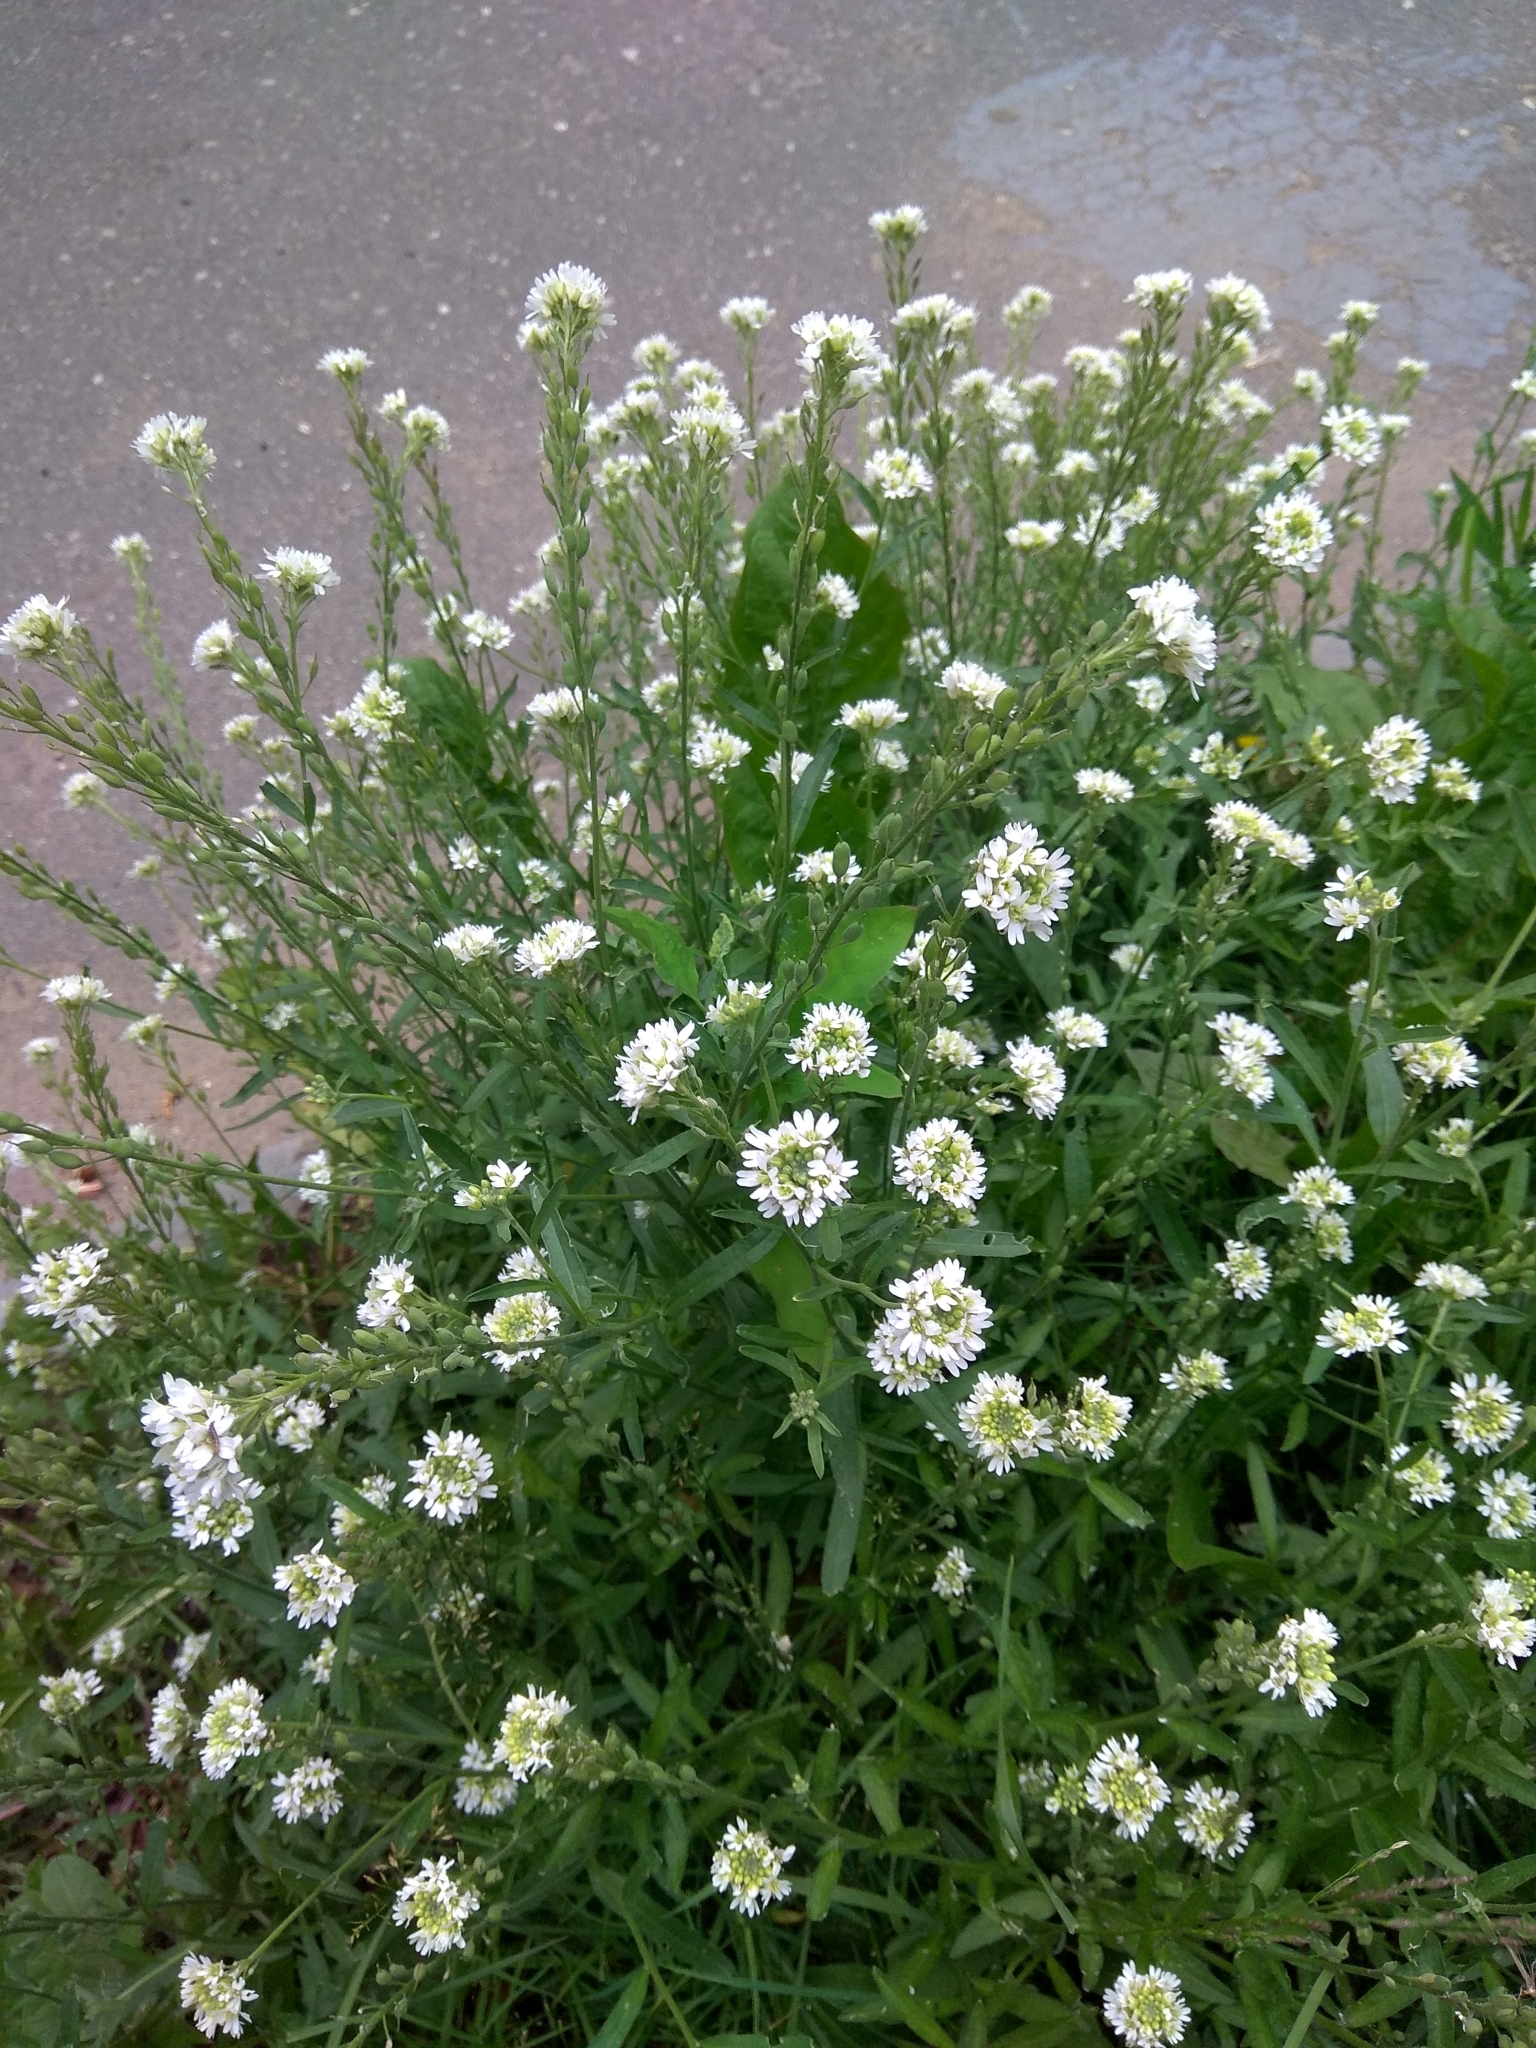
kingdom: Plantae
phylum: Tracheophyta
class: Magnoliopsida
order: Brassicales
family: Brassicaceae
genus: Berteroa
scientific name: Berteroa incana
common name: Hoary alison
